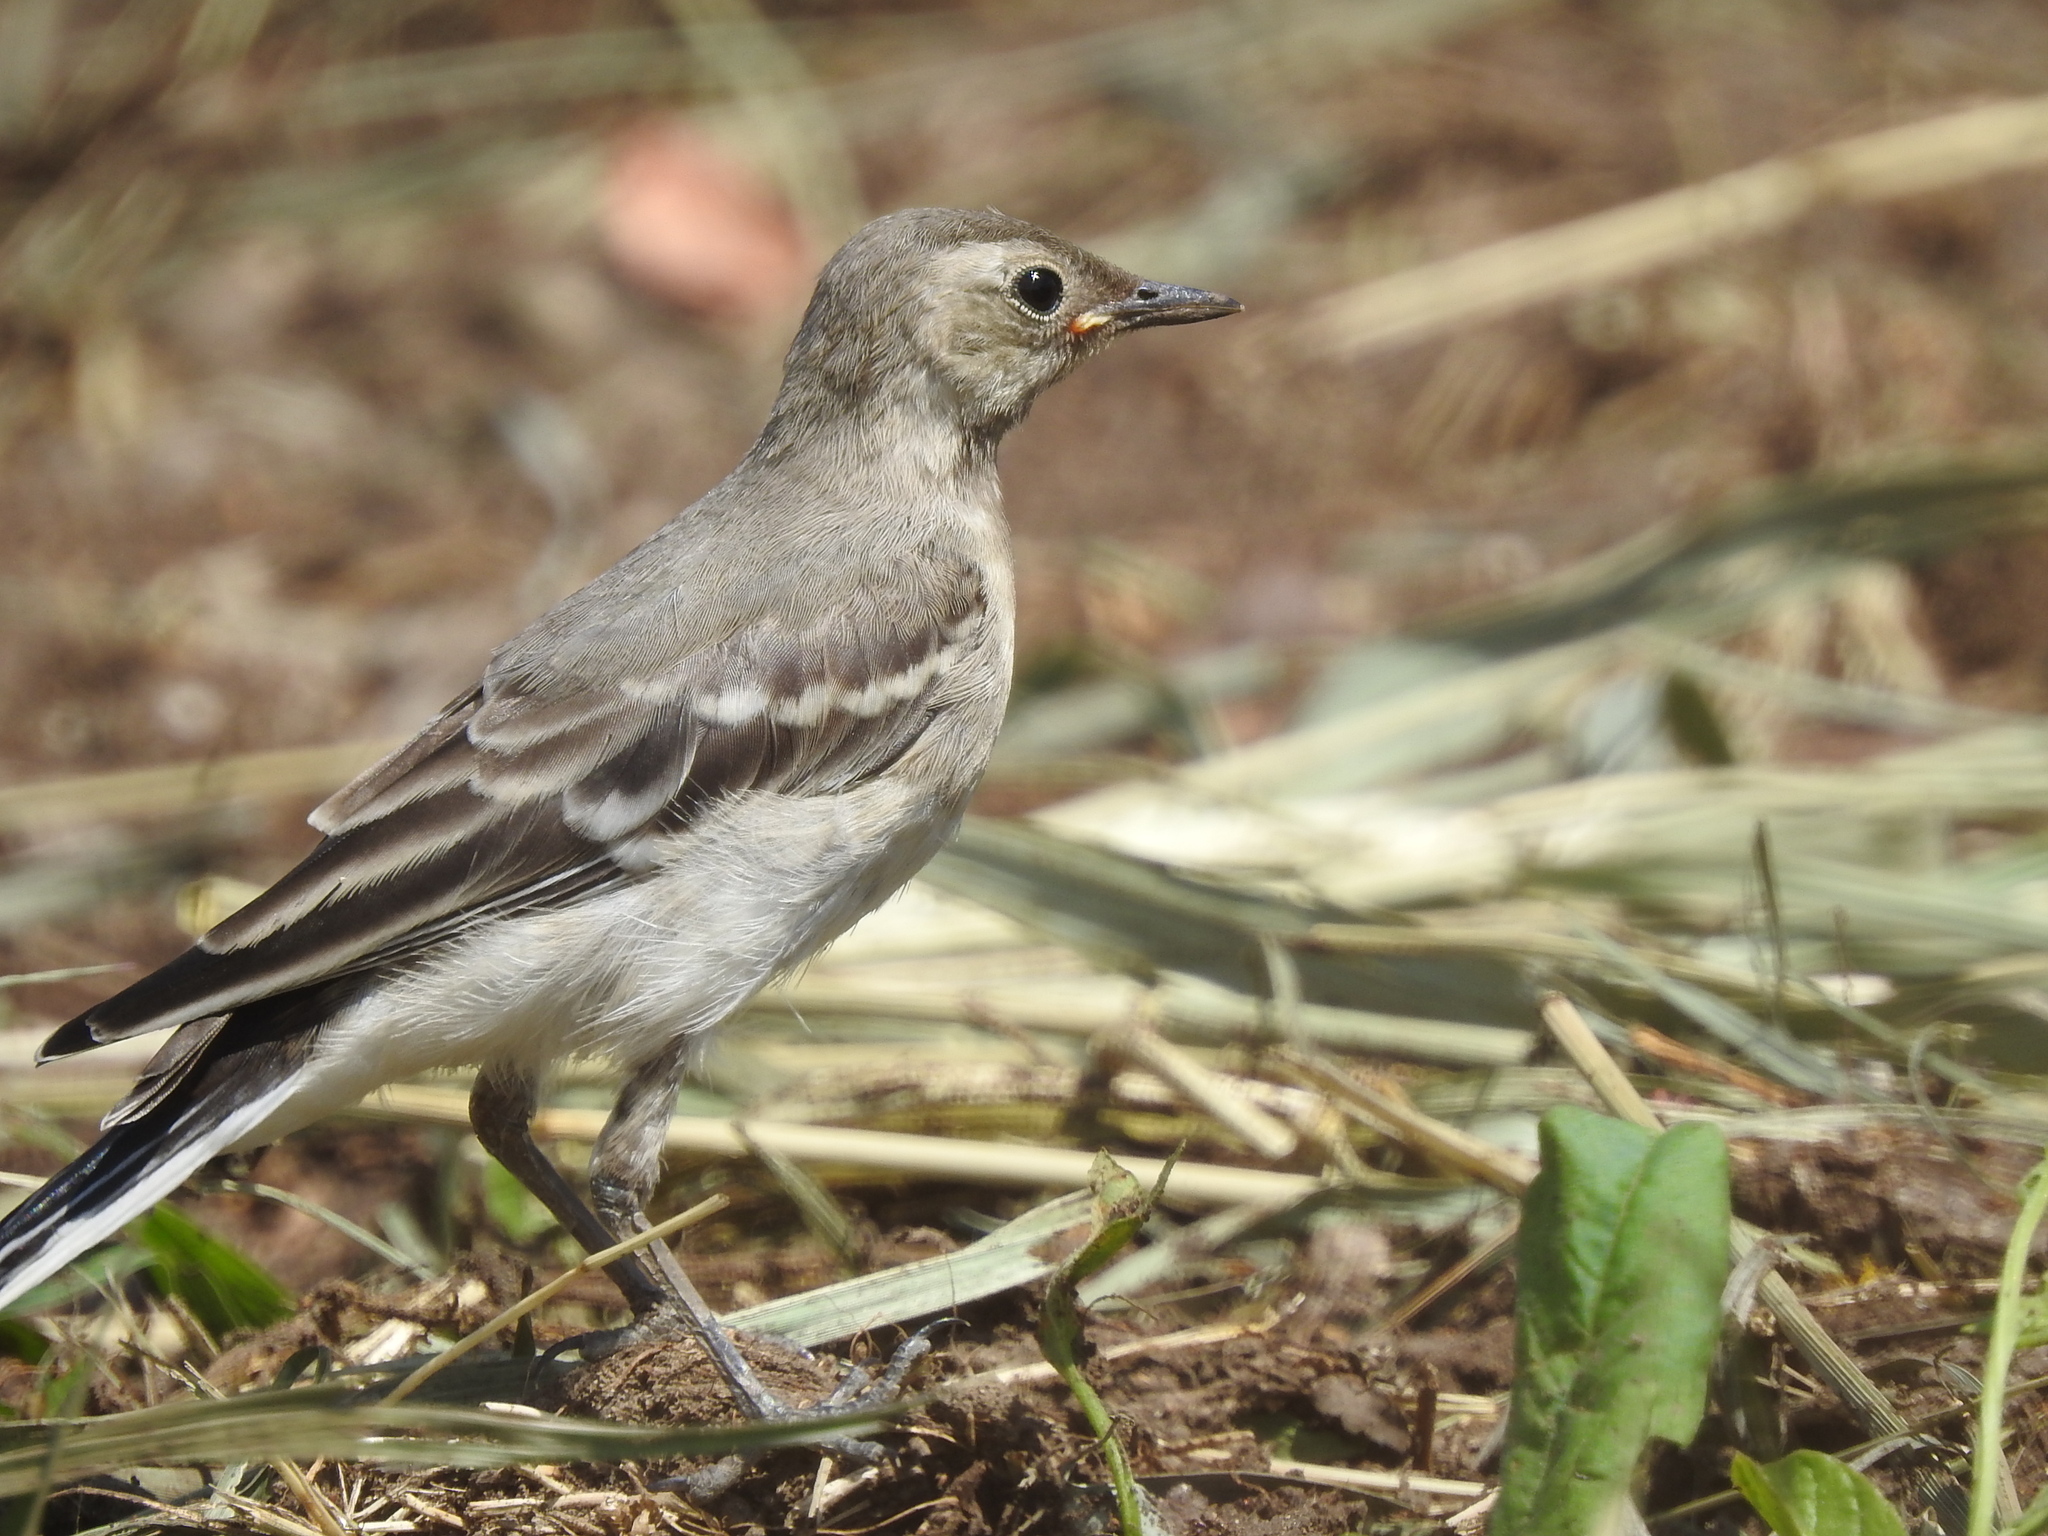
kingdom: Animalia
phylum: Chordata
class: Aves
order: Passeriformes
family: Motacillidae
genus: Motacilla
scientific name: Motacilla alba
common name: White wagtail
